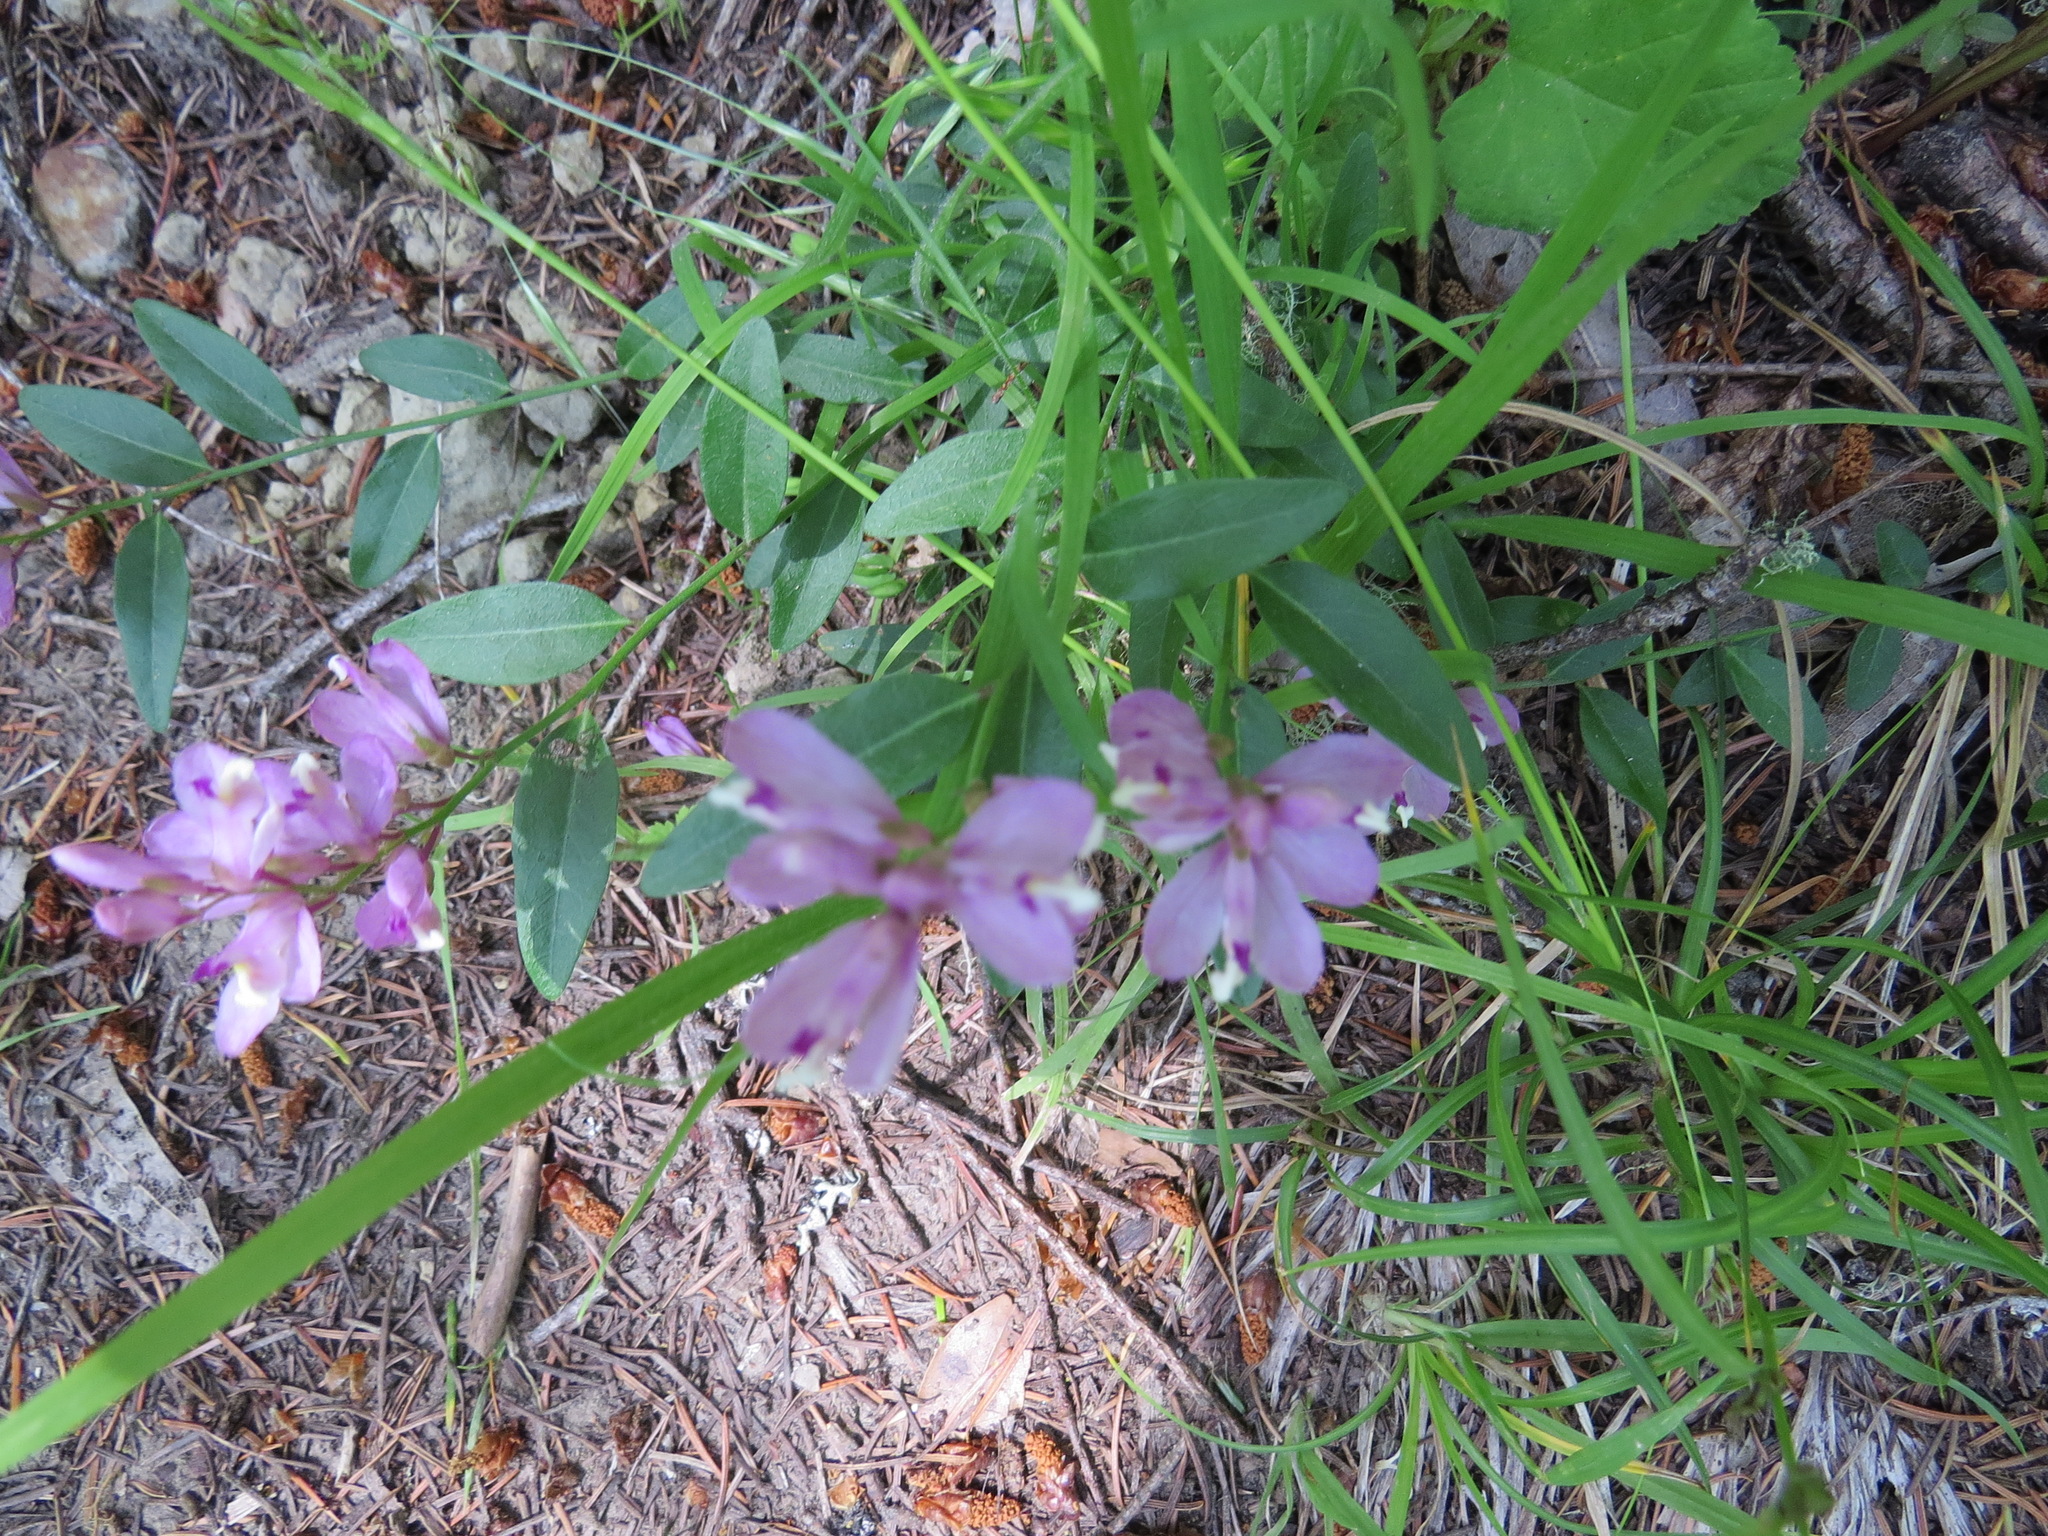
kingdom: Plantae
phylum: Tracheophyta
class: Magnoliopsida
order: Fabales
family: Polygalaceae
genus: Rhinotropis
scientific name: Rhinotropis californica
